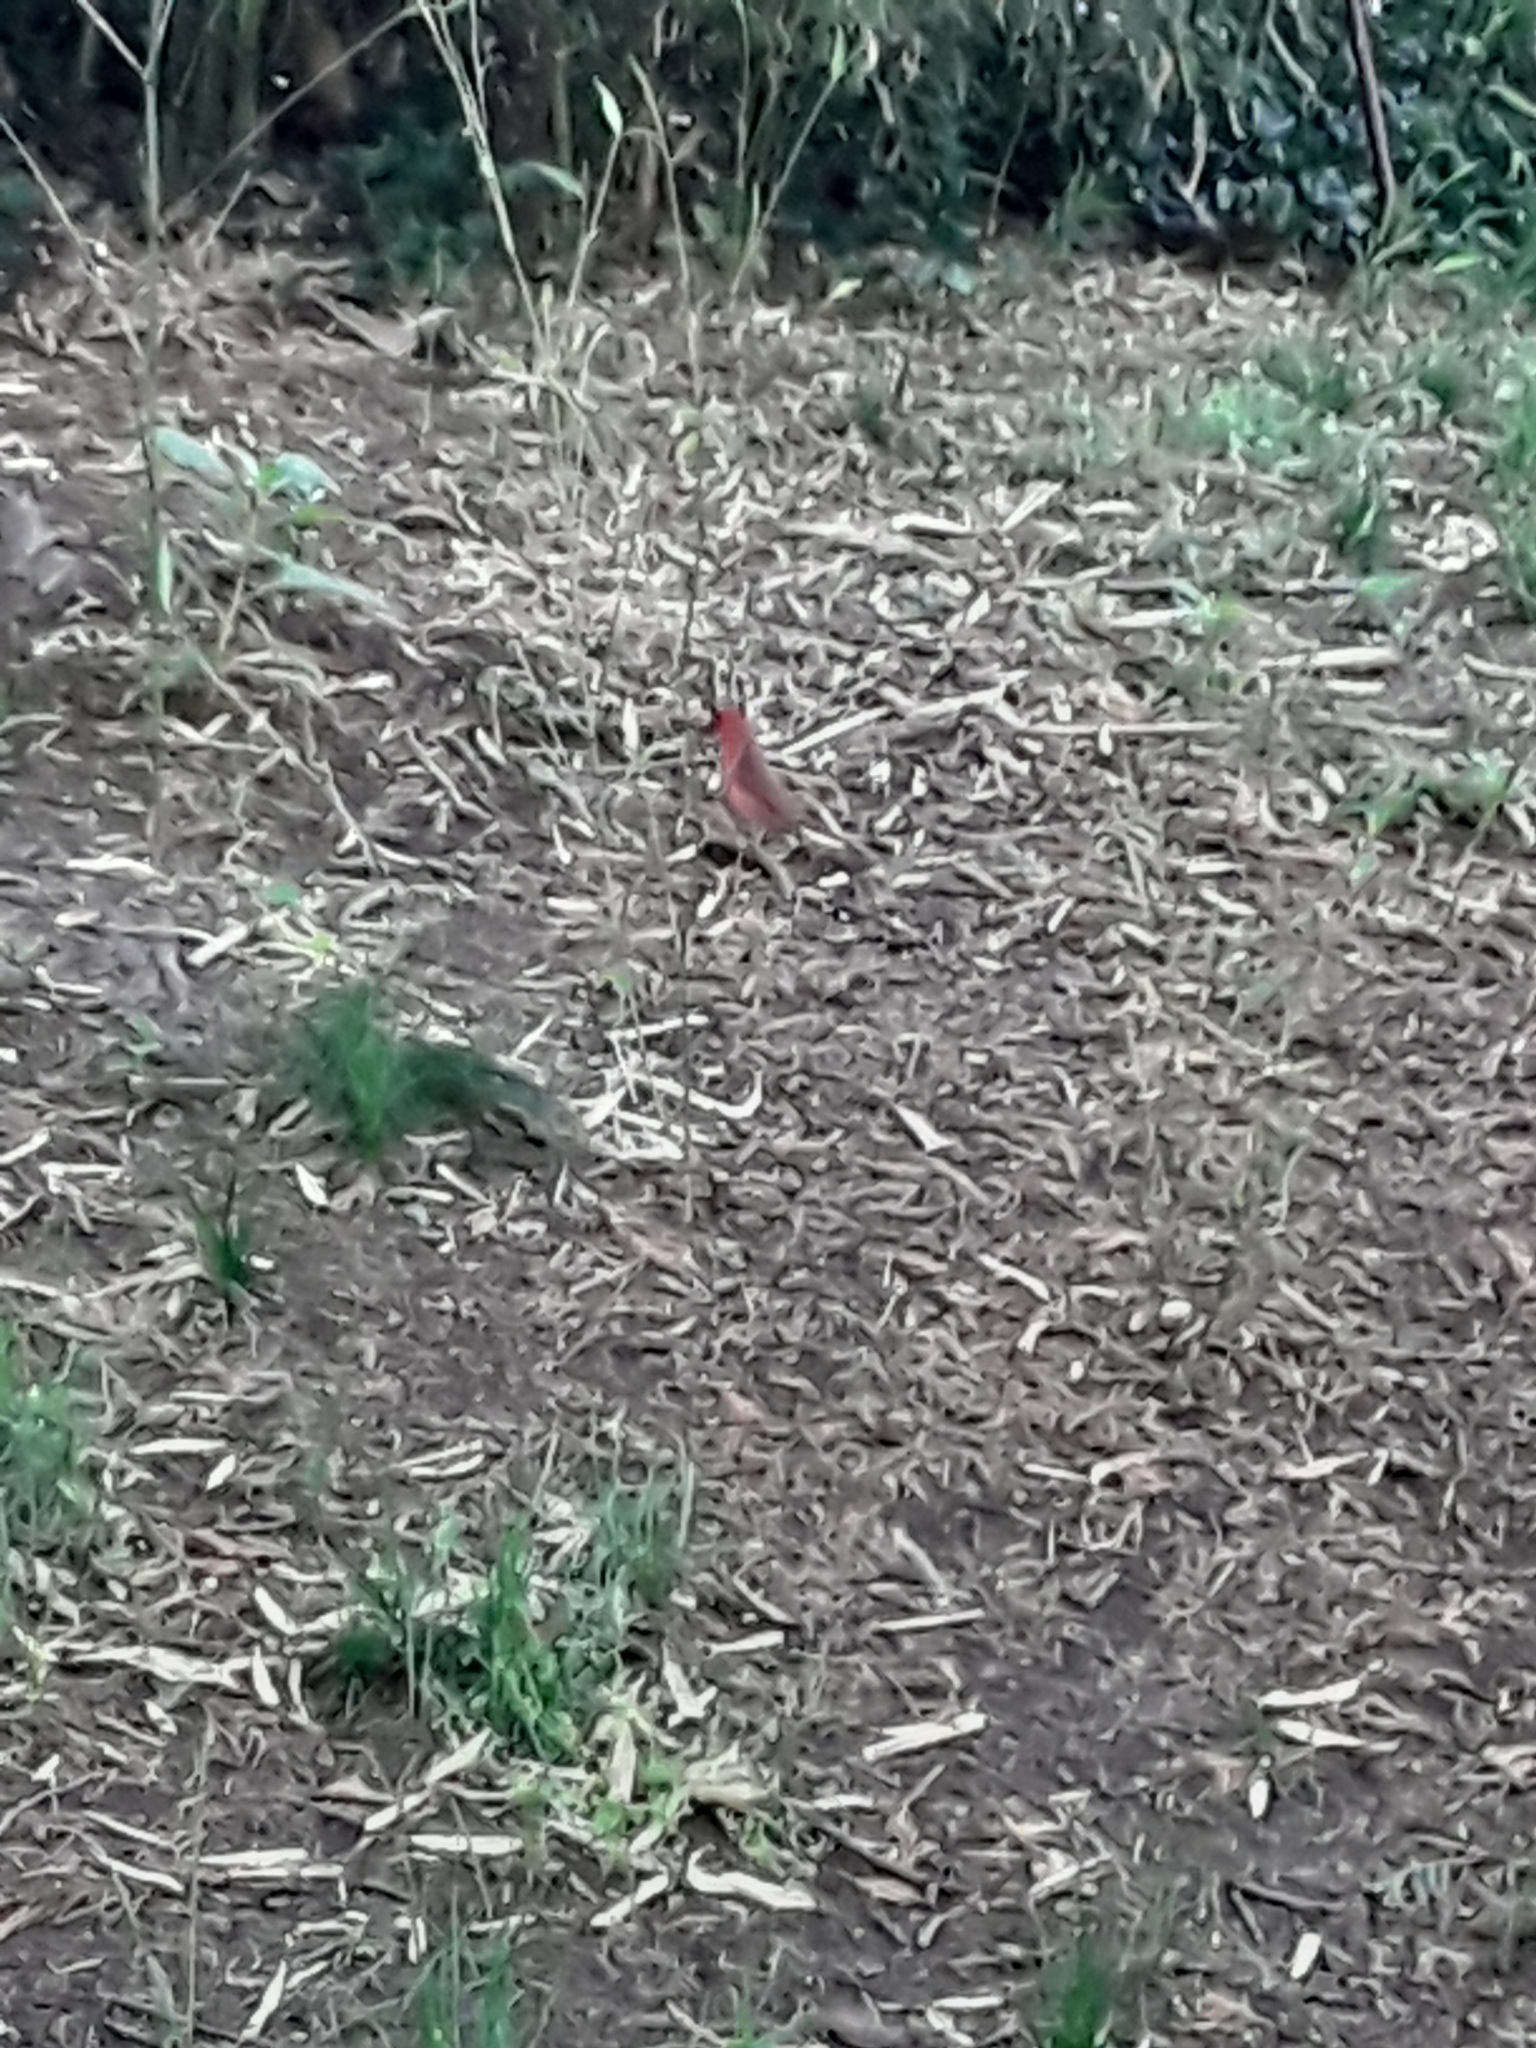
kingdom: Animalia
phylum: Chordata
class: Aves
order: Passeriformes
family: Cardinalidae
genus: Cardinalis
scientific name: Cardinalis cardinalis
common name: Northern cardinal
